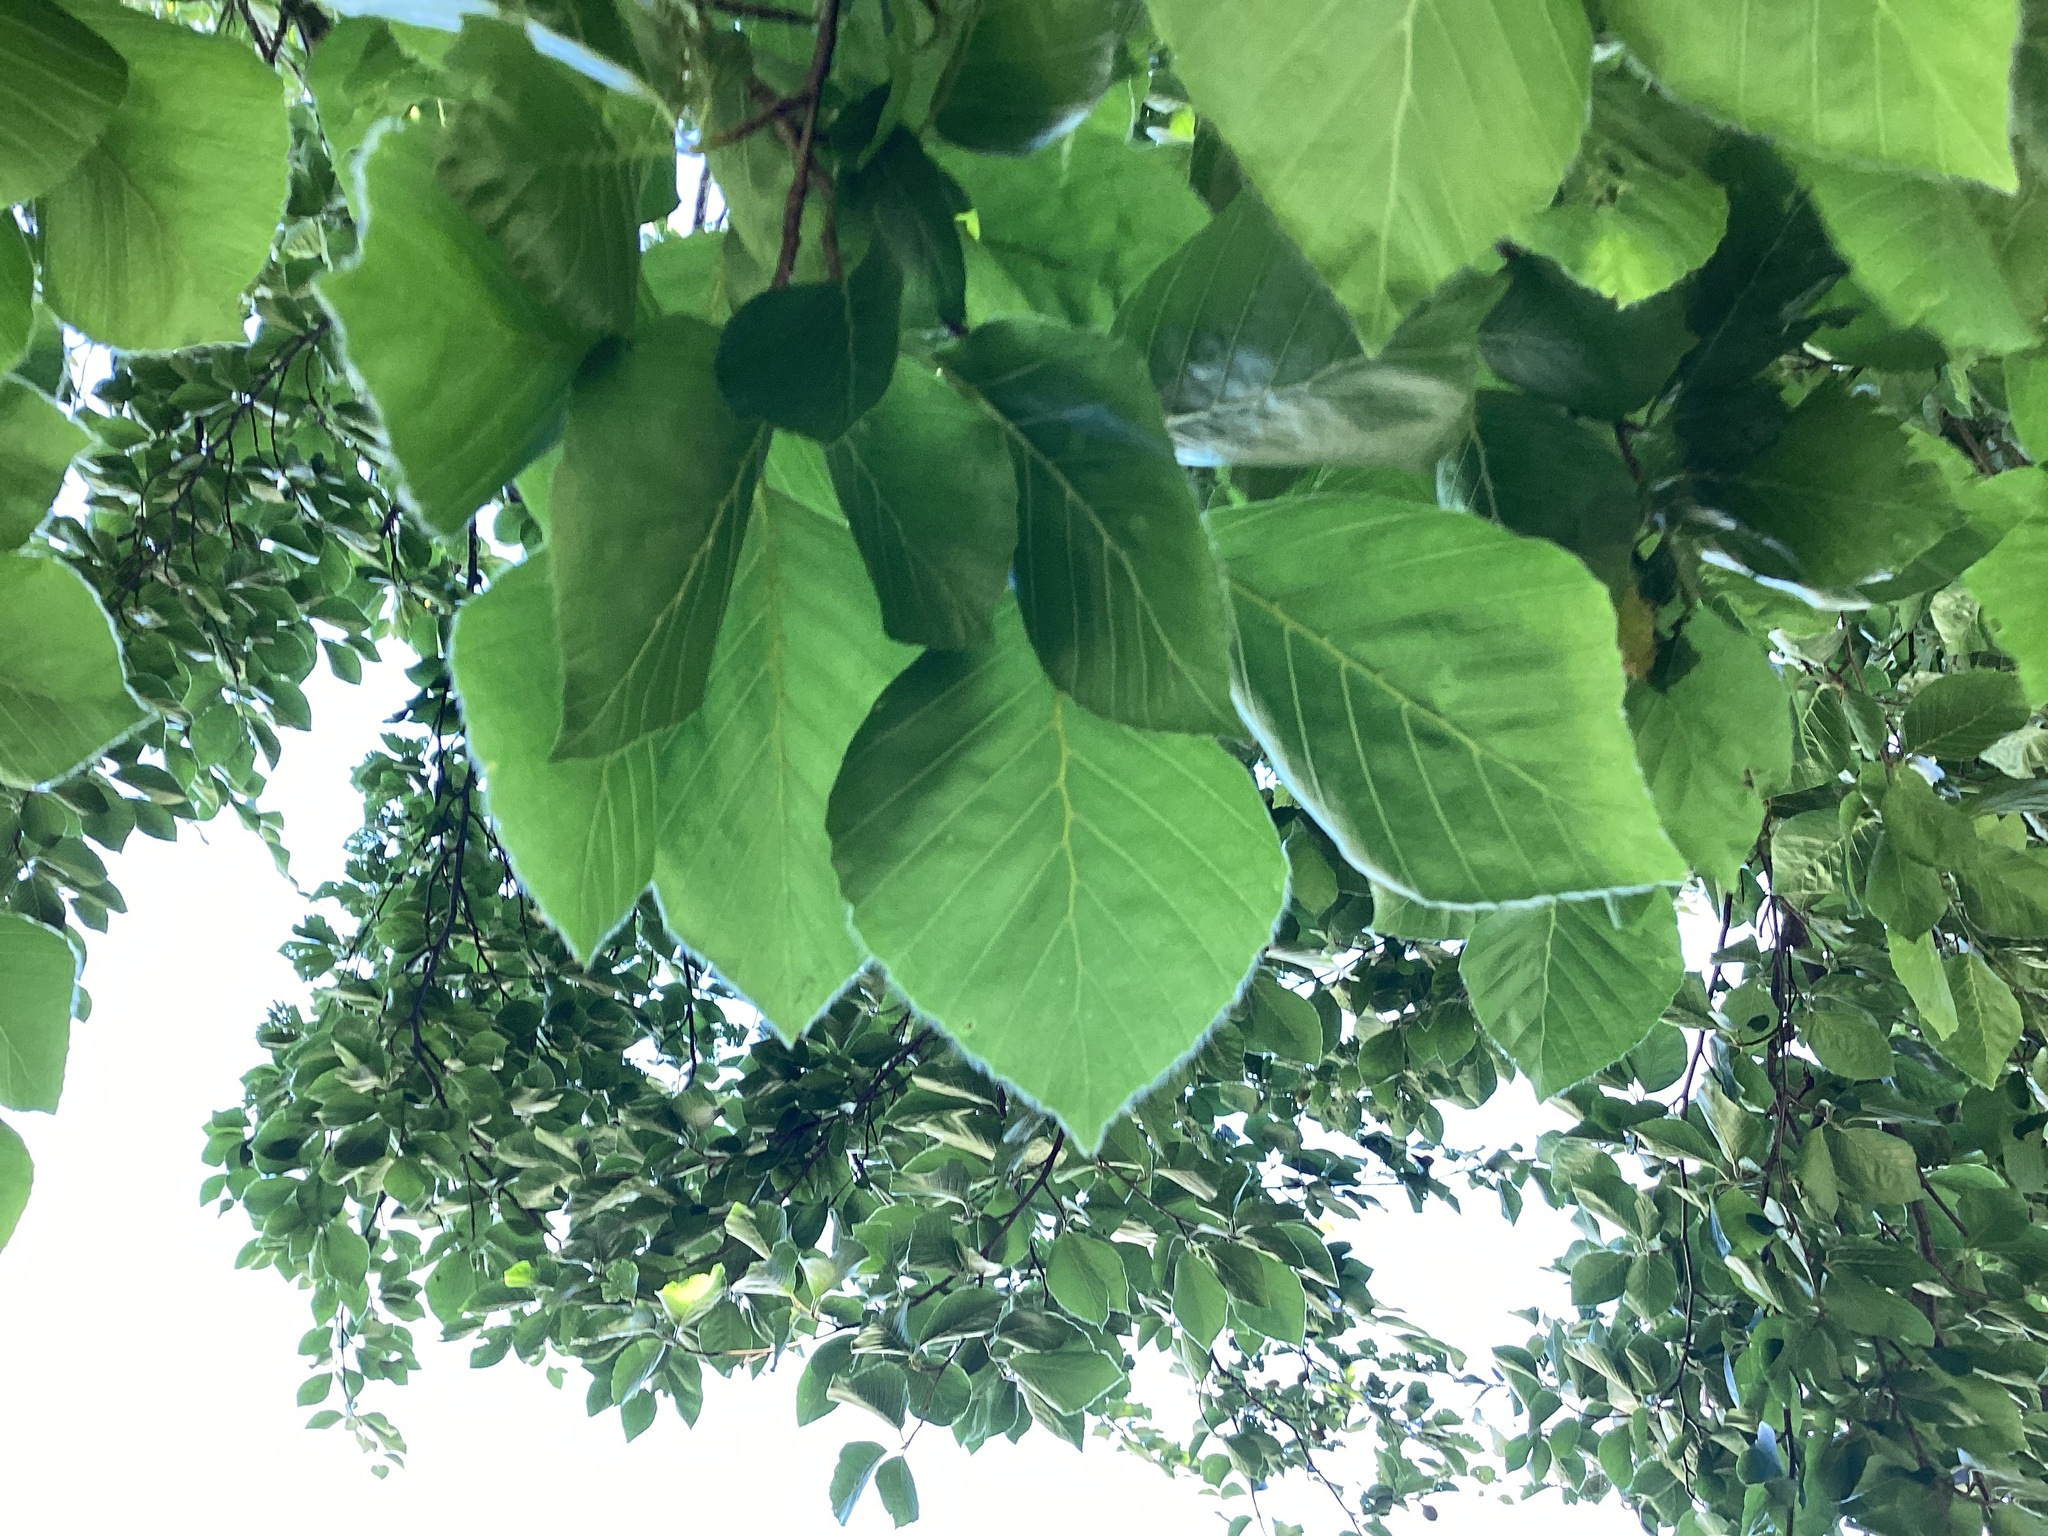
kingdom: Plantae
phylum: Tracheophyta
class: Magnoliopsida
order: Fagales
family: Fagaceae
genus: Fagus
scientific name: Fagus sylvatica
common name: Beech
